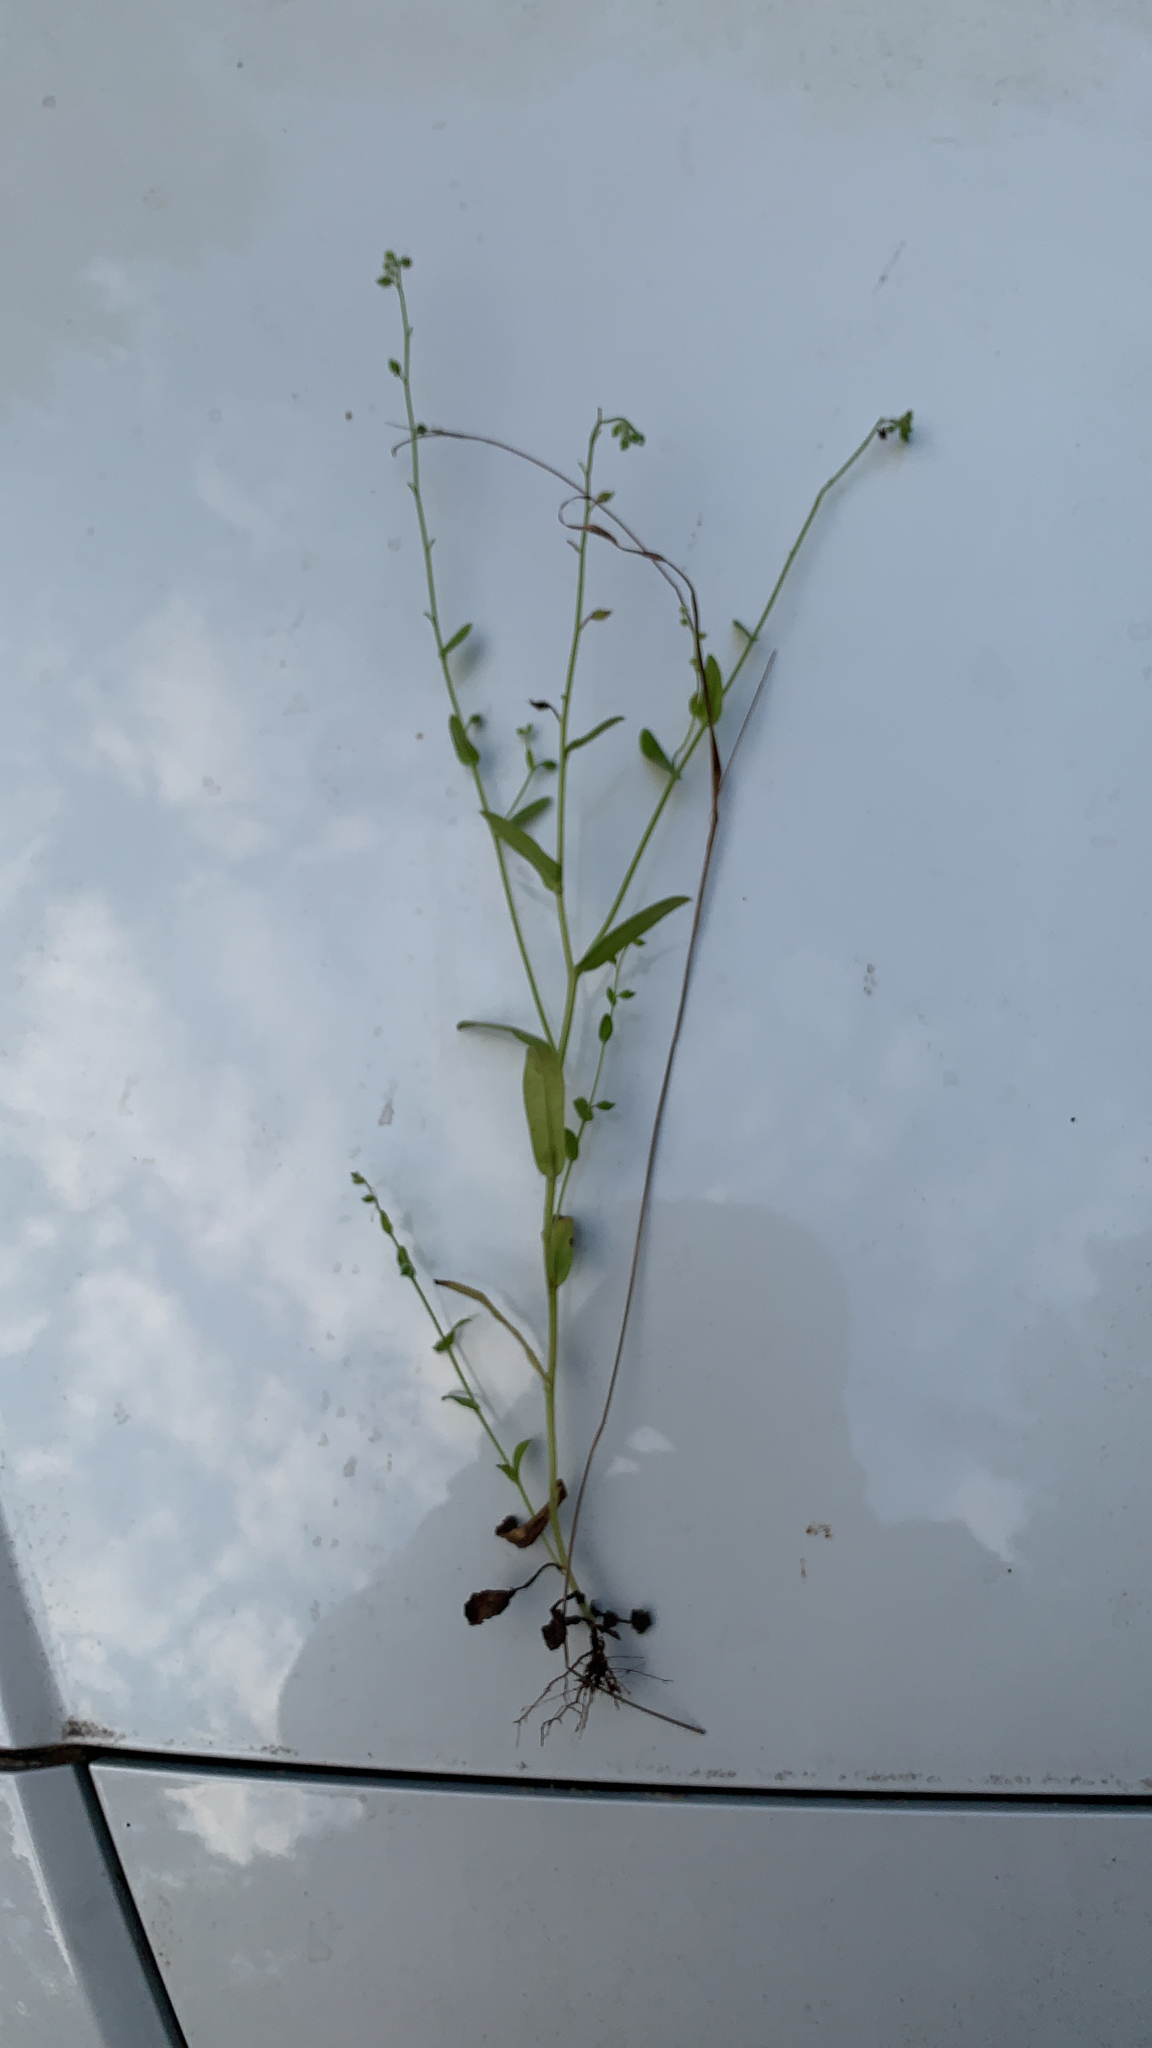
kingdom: Plantae
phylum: Tracheophyta
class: Magnoliopsida
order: Boraginales
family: Boraginaceae
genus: Myosotis
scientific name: Myosotis macrosperma
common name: Large-seed forget-me-not
